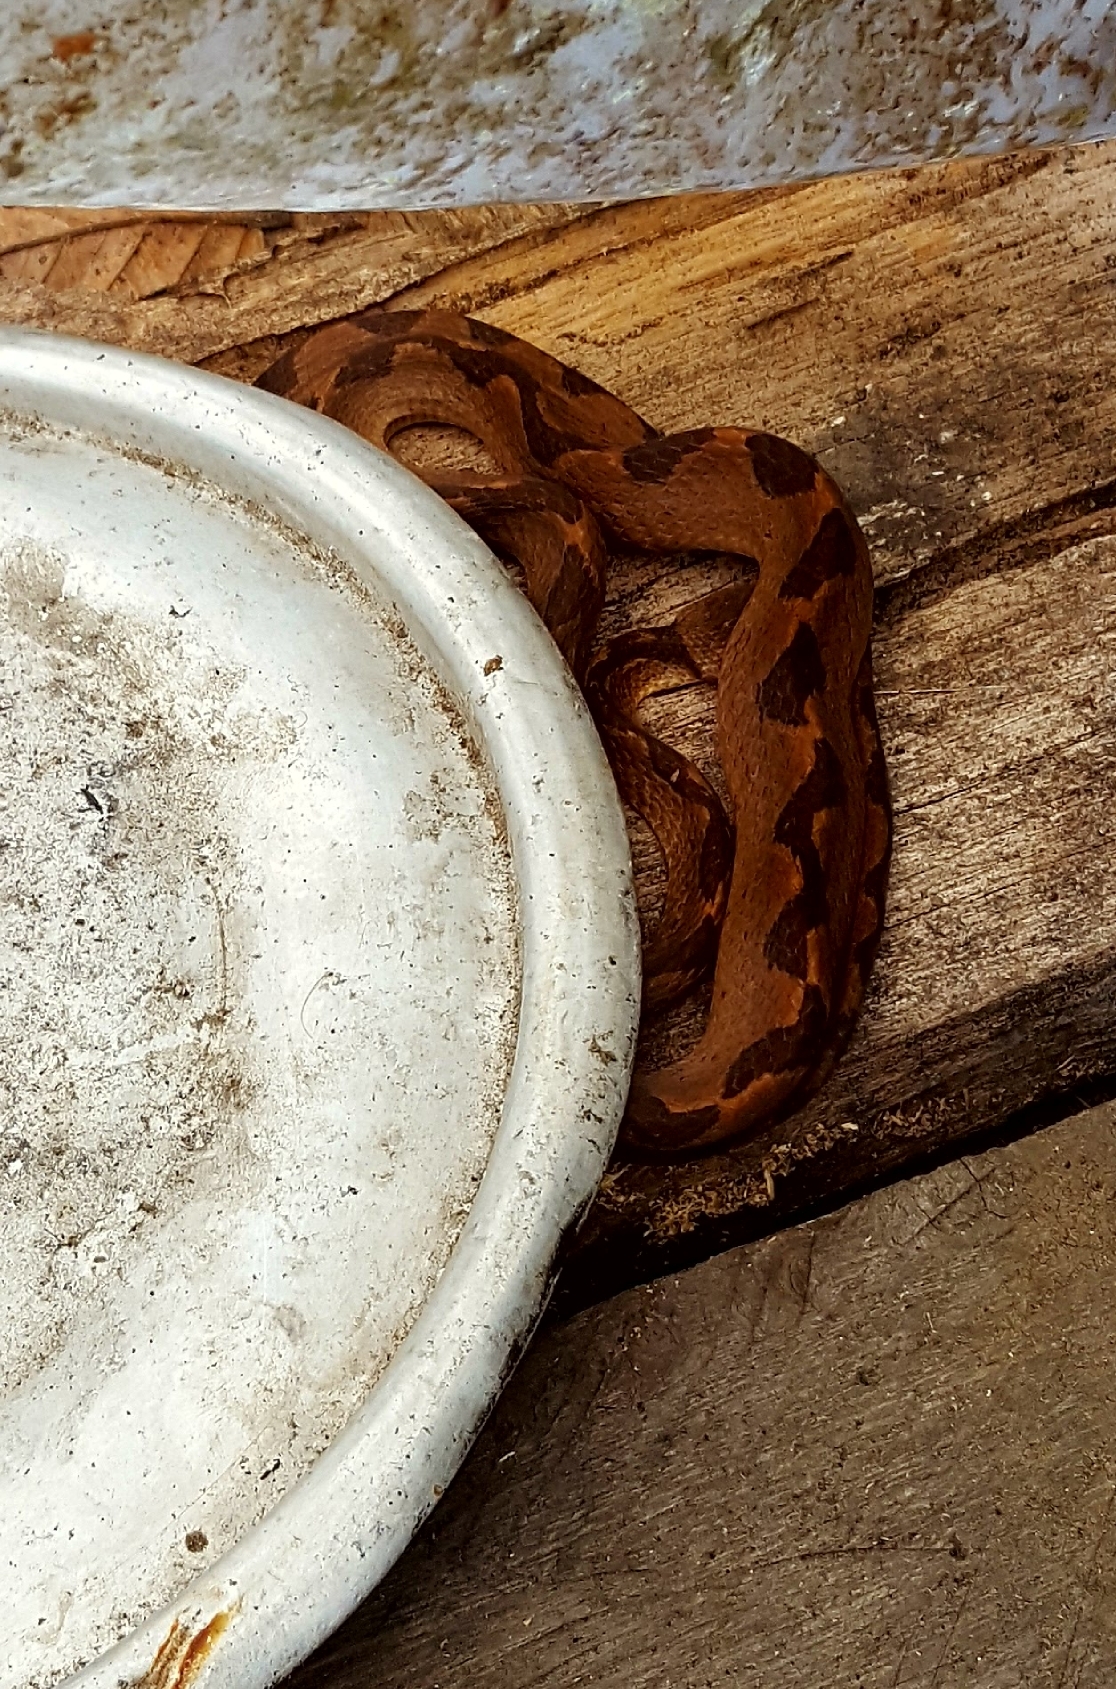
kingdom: Animalia
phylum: Chordata
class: Squamata
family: Colubridae
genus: Leptodeira
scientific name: Leptodeira annulata
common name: Banded cat-eyed snake
